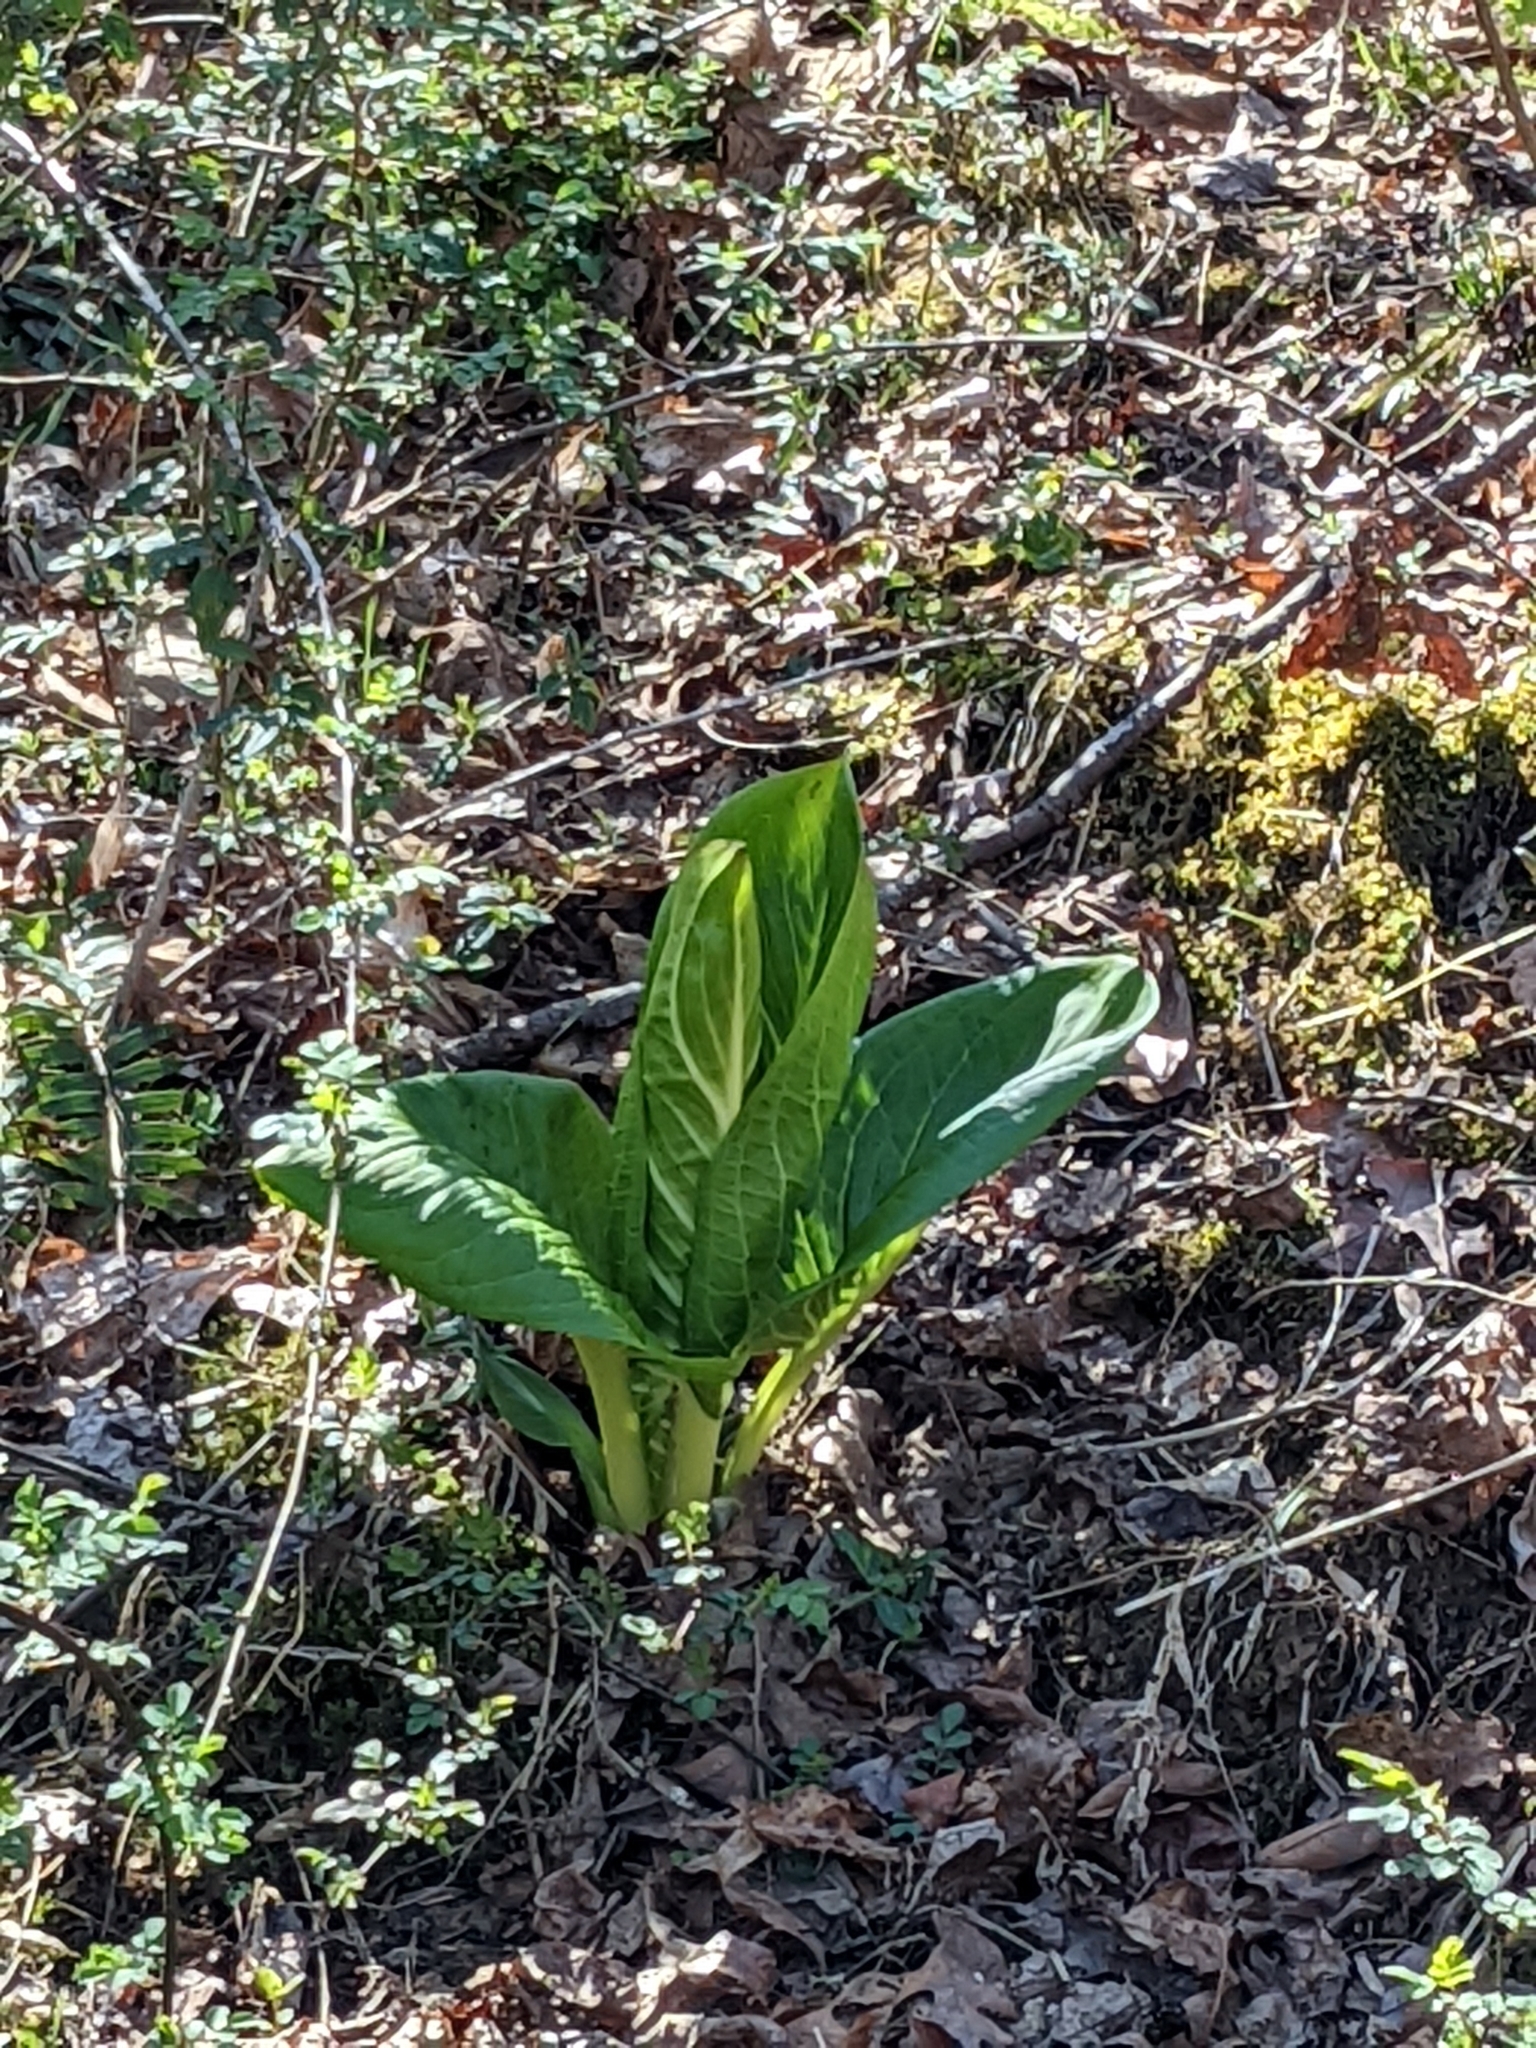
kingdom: Plantae
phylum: Tracheophyta
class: Liliopsida
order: Alismatales
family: Araceae
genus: Symplocarpus
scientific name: Symplocarpus foetidus
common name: Eastern skunk cabbage
